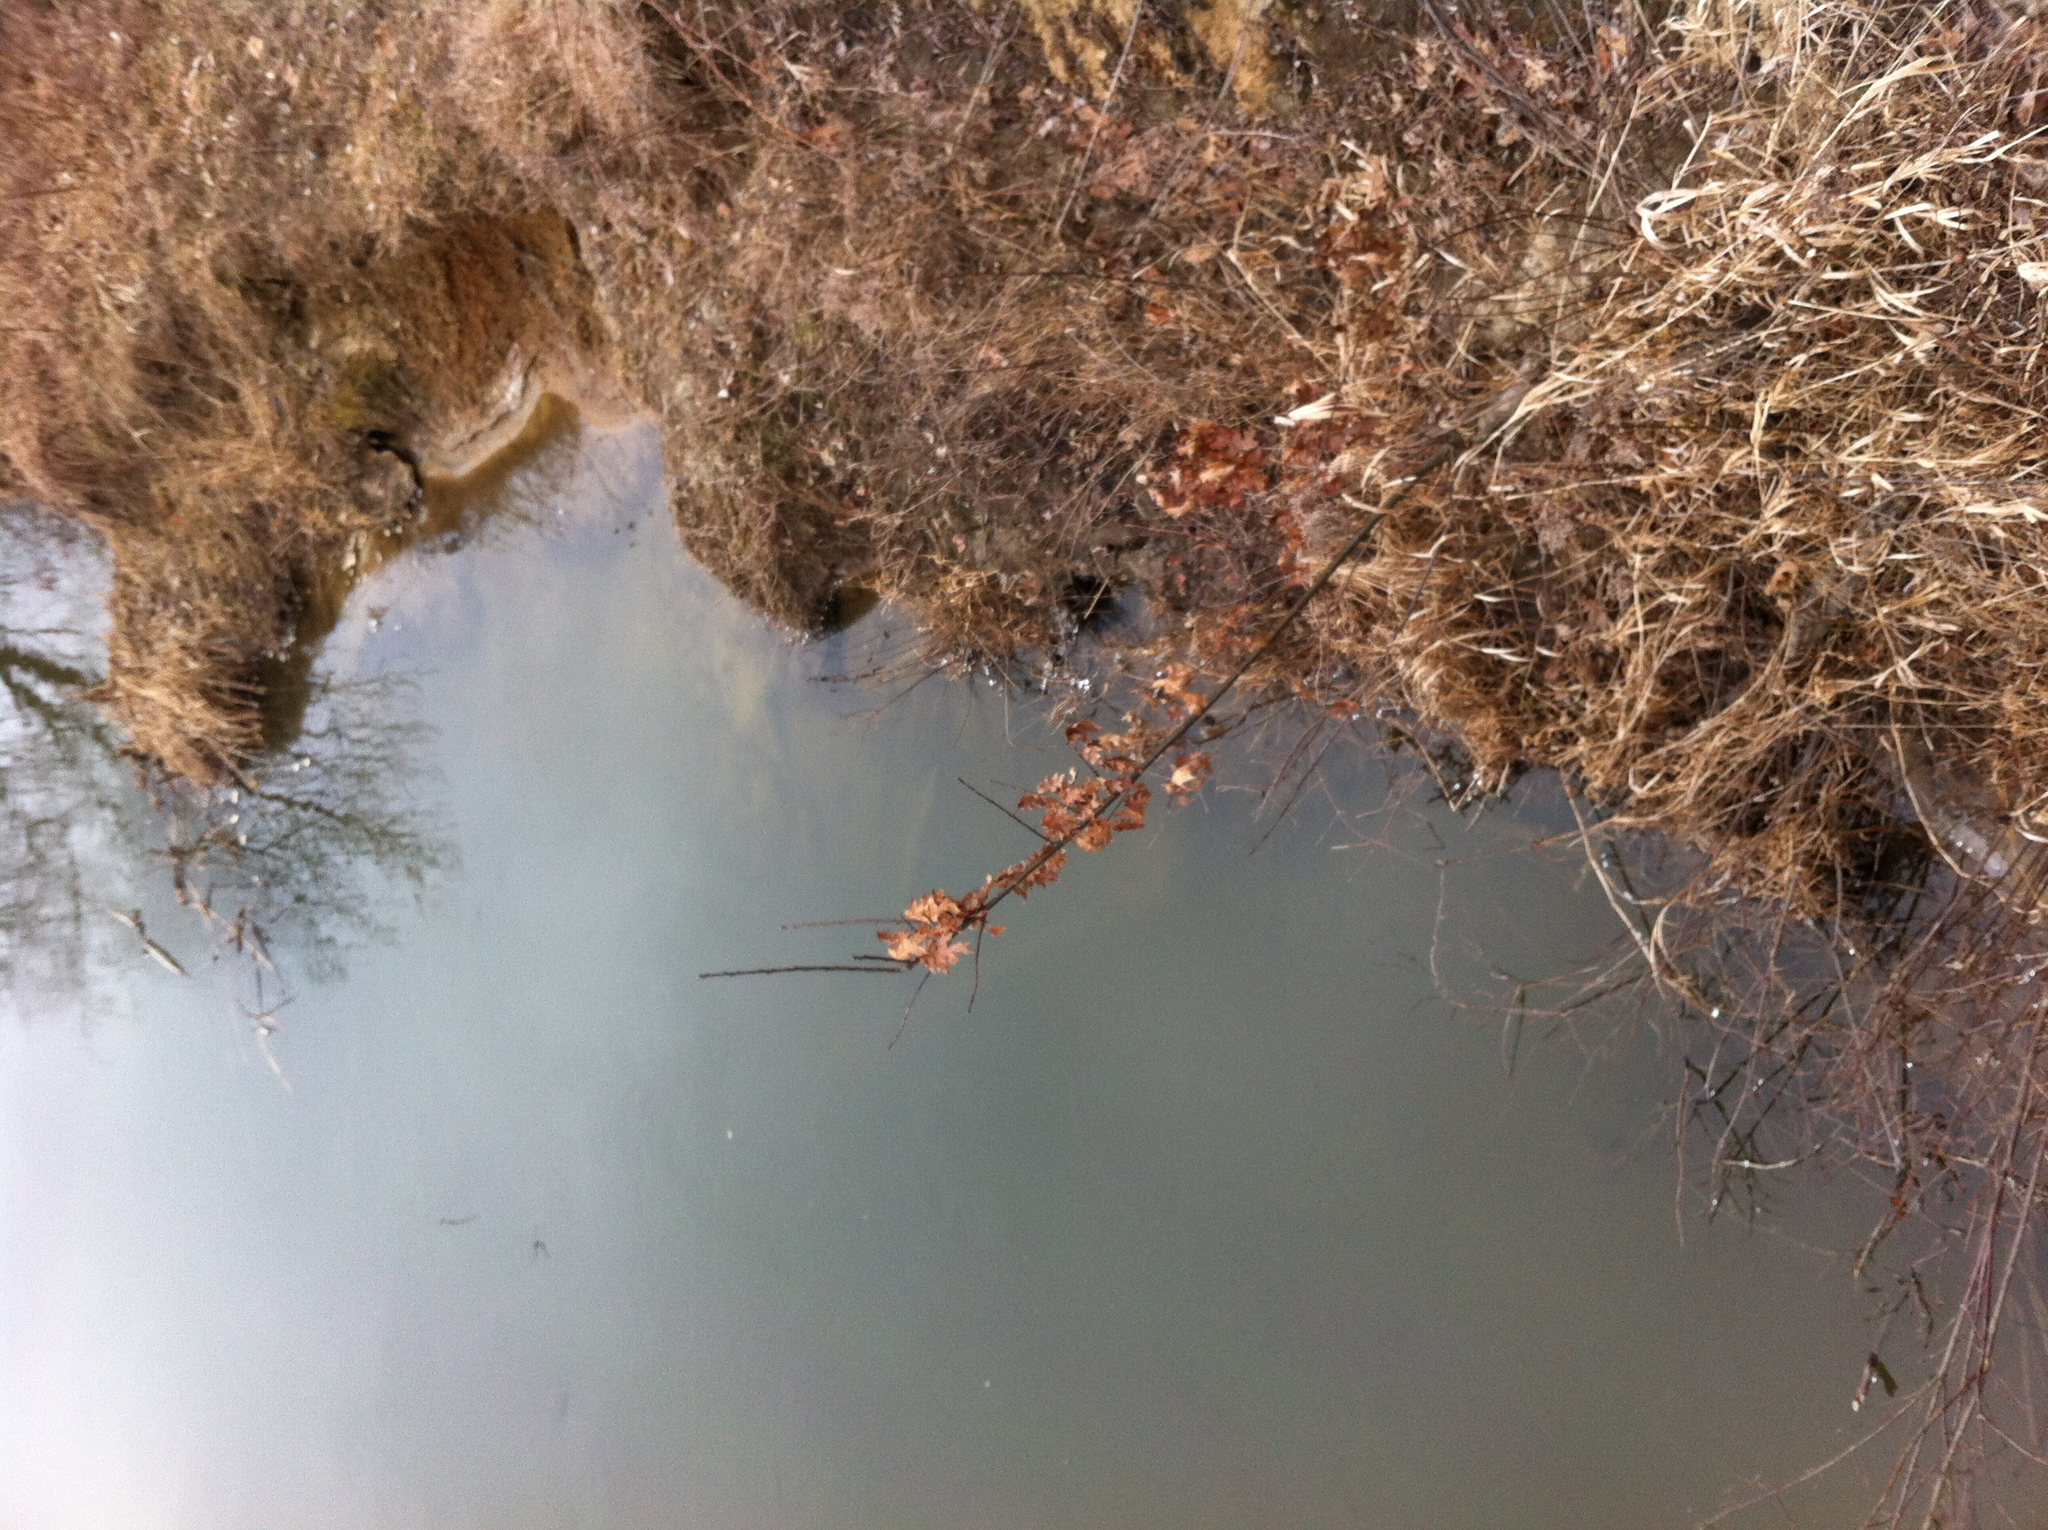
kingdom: Plantae
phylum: Tracheophyta
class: Magnoliopsida
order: Fagales
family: Fagaceae
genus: Quercus
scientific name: Quercus rubra
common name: Red oak
